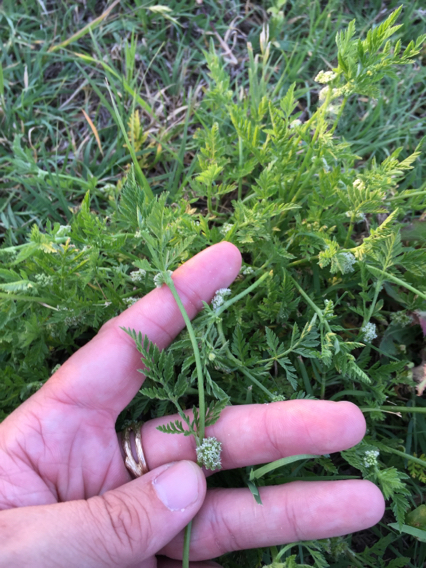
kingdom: Plantae
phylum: Tracheophyta
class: Magnoliopsida
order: Apiales
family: Apiaceae
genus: Torilis
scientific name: Torilis nodosa
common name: Knotted hedge-parsley
